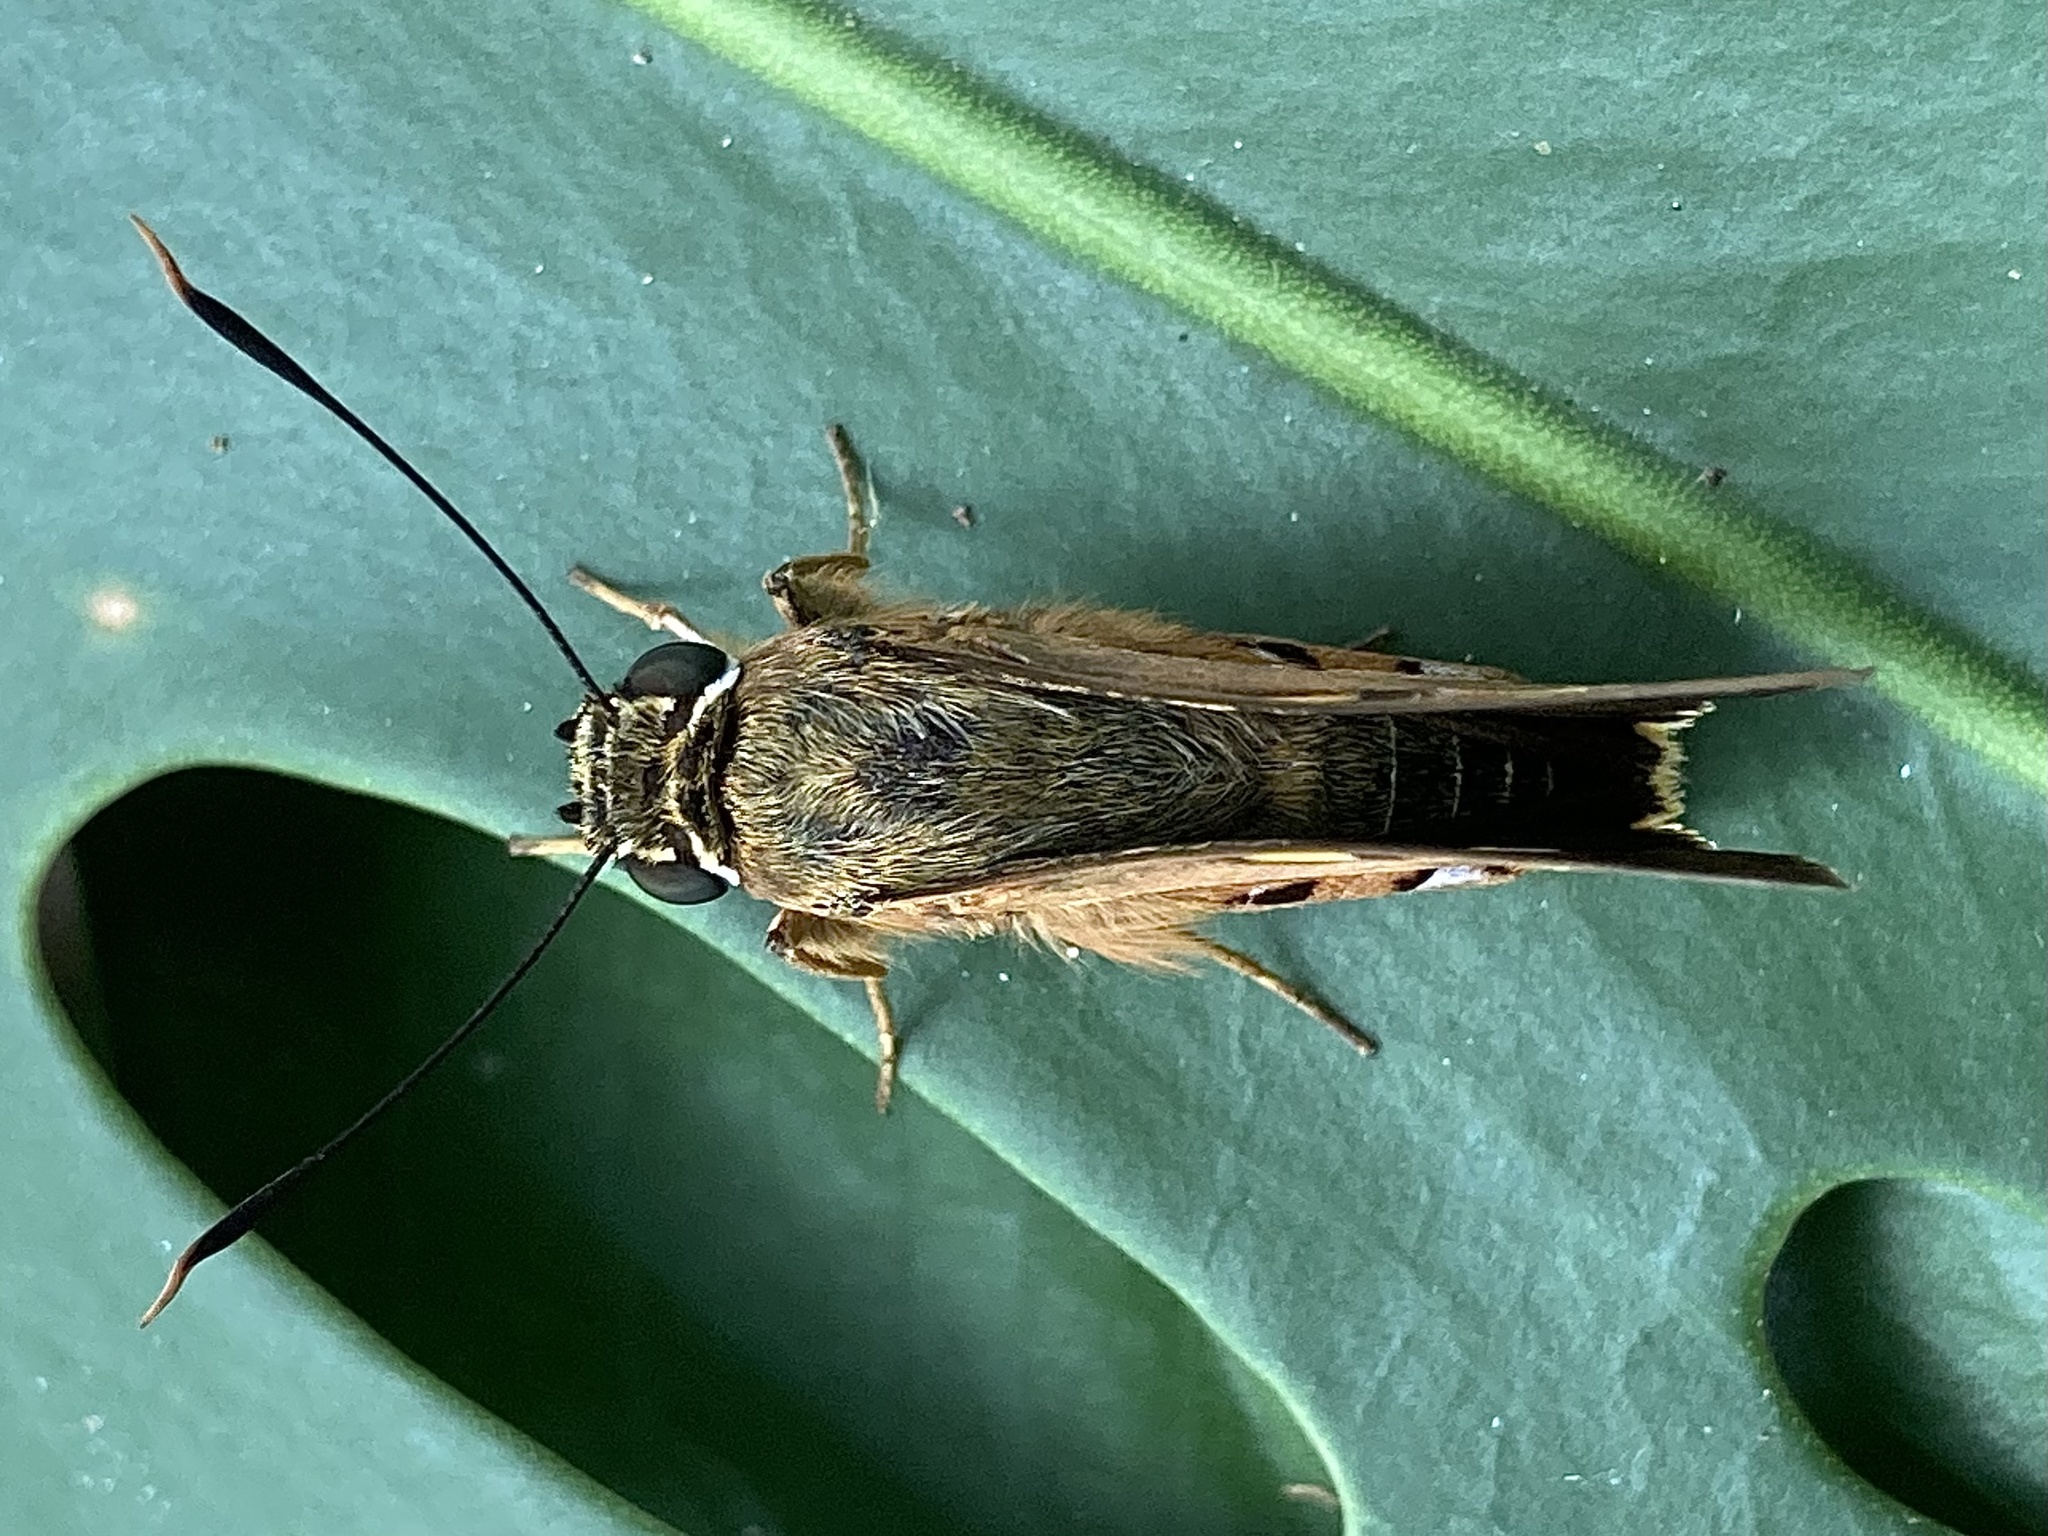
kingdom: Animalia
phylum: Arthropoda
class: Insecta
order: Lepidoptera
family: Hesperiidae
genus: Trapezites
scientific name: Trapezites symmomus
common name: Splendid ochre
